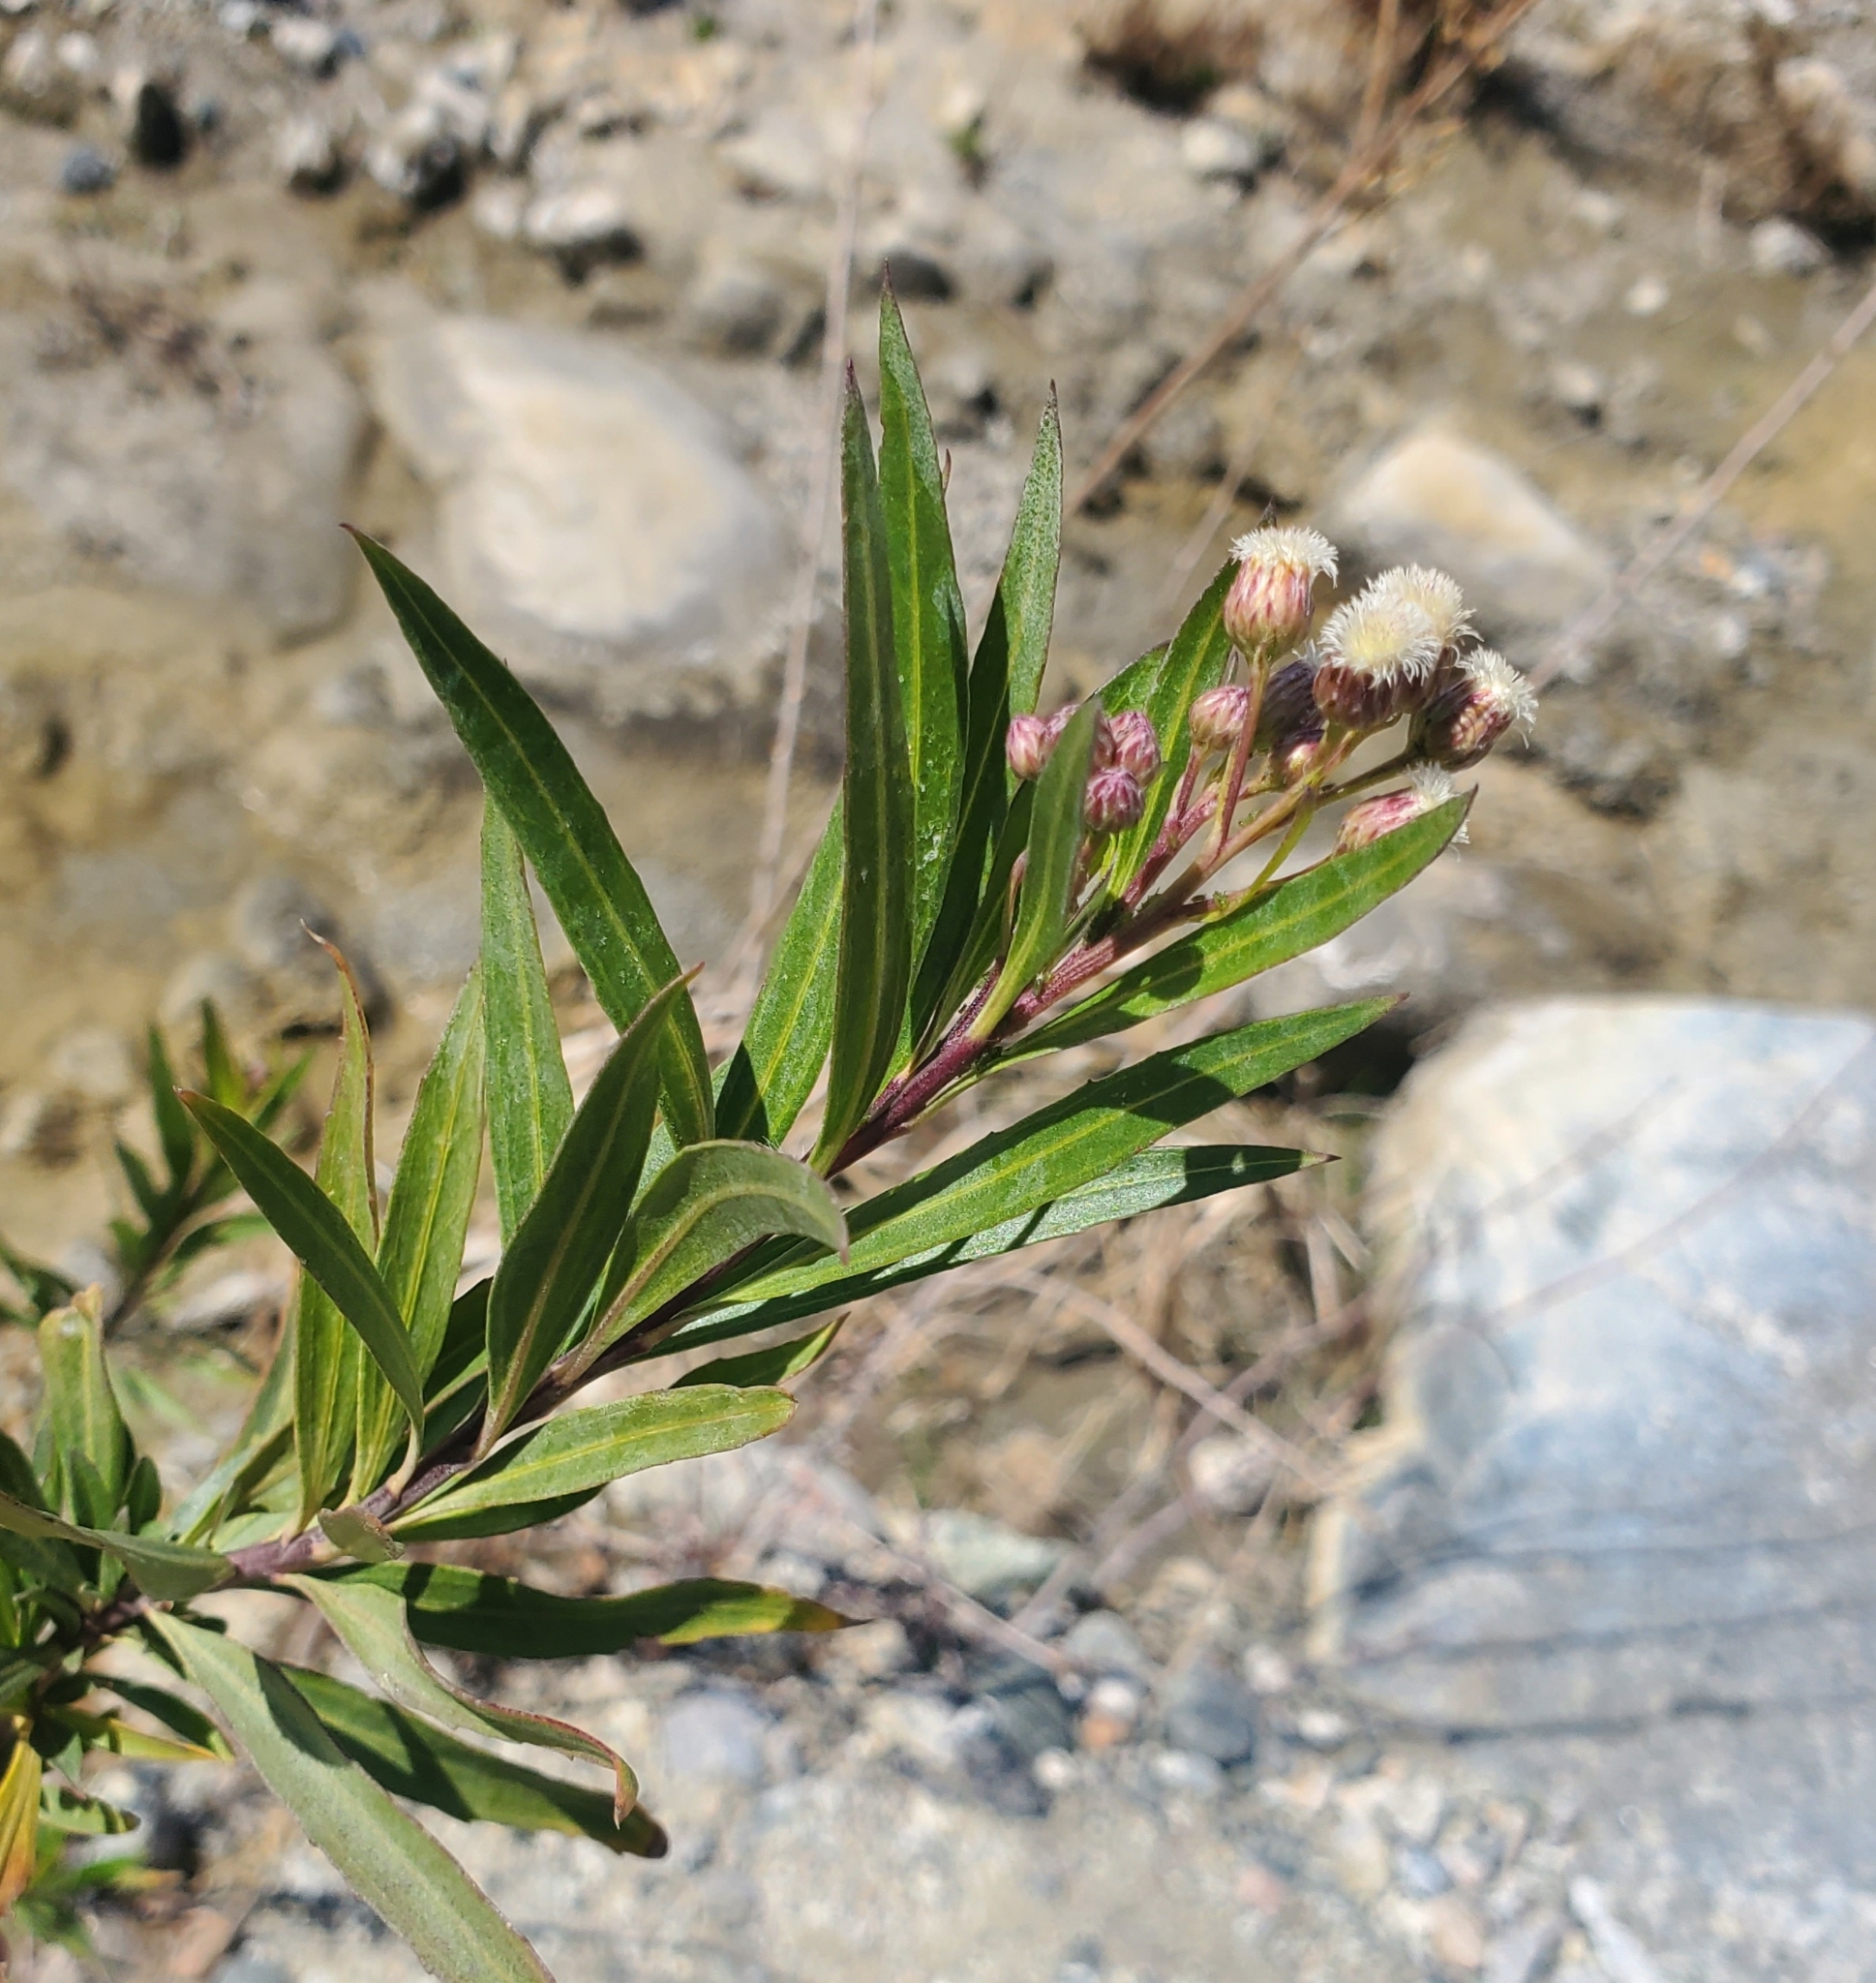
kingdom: Plantae
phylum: Tracheophyta
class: Magnoliopsida
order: Asterales
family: Asteraceae
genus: Baccharis
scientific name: Baccharis salicifolia
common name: Sticky baccharis
